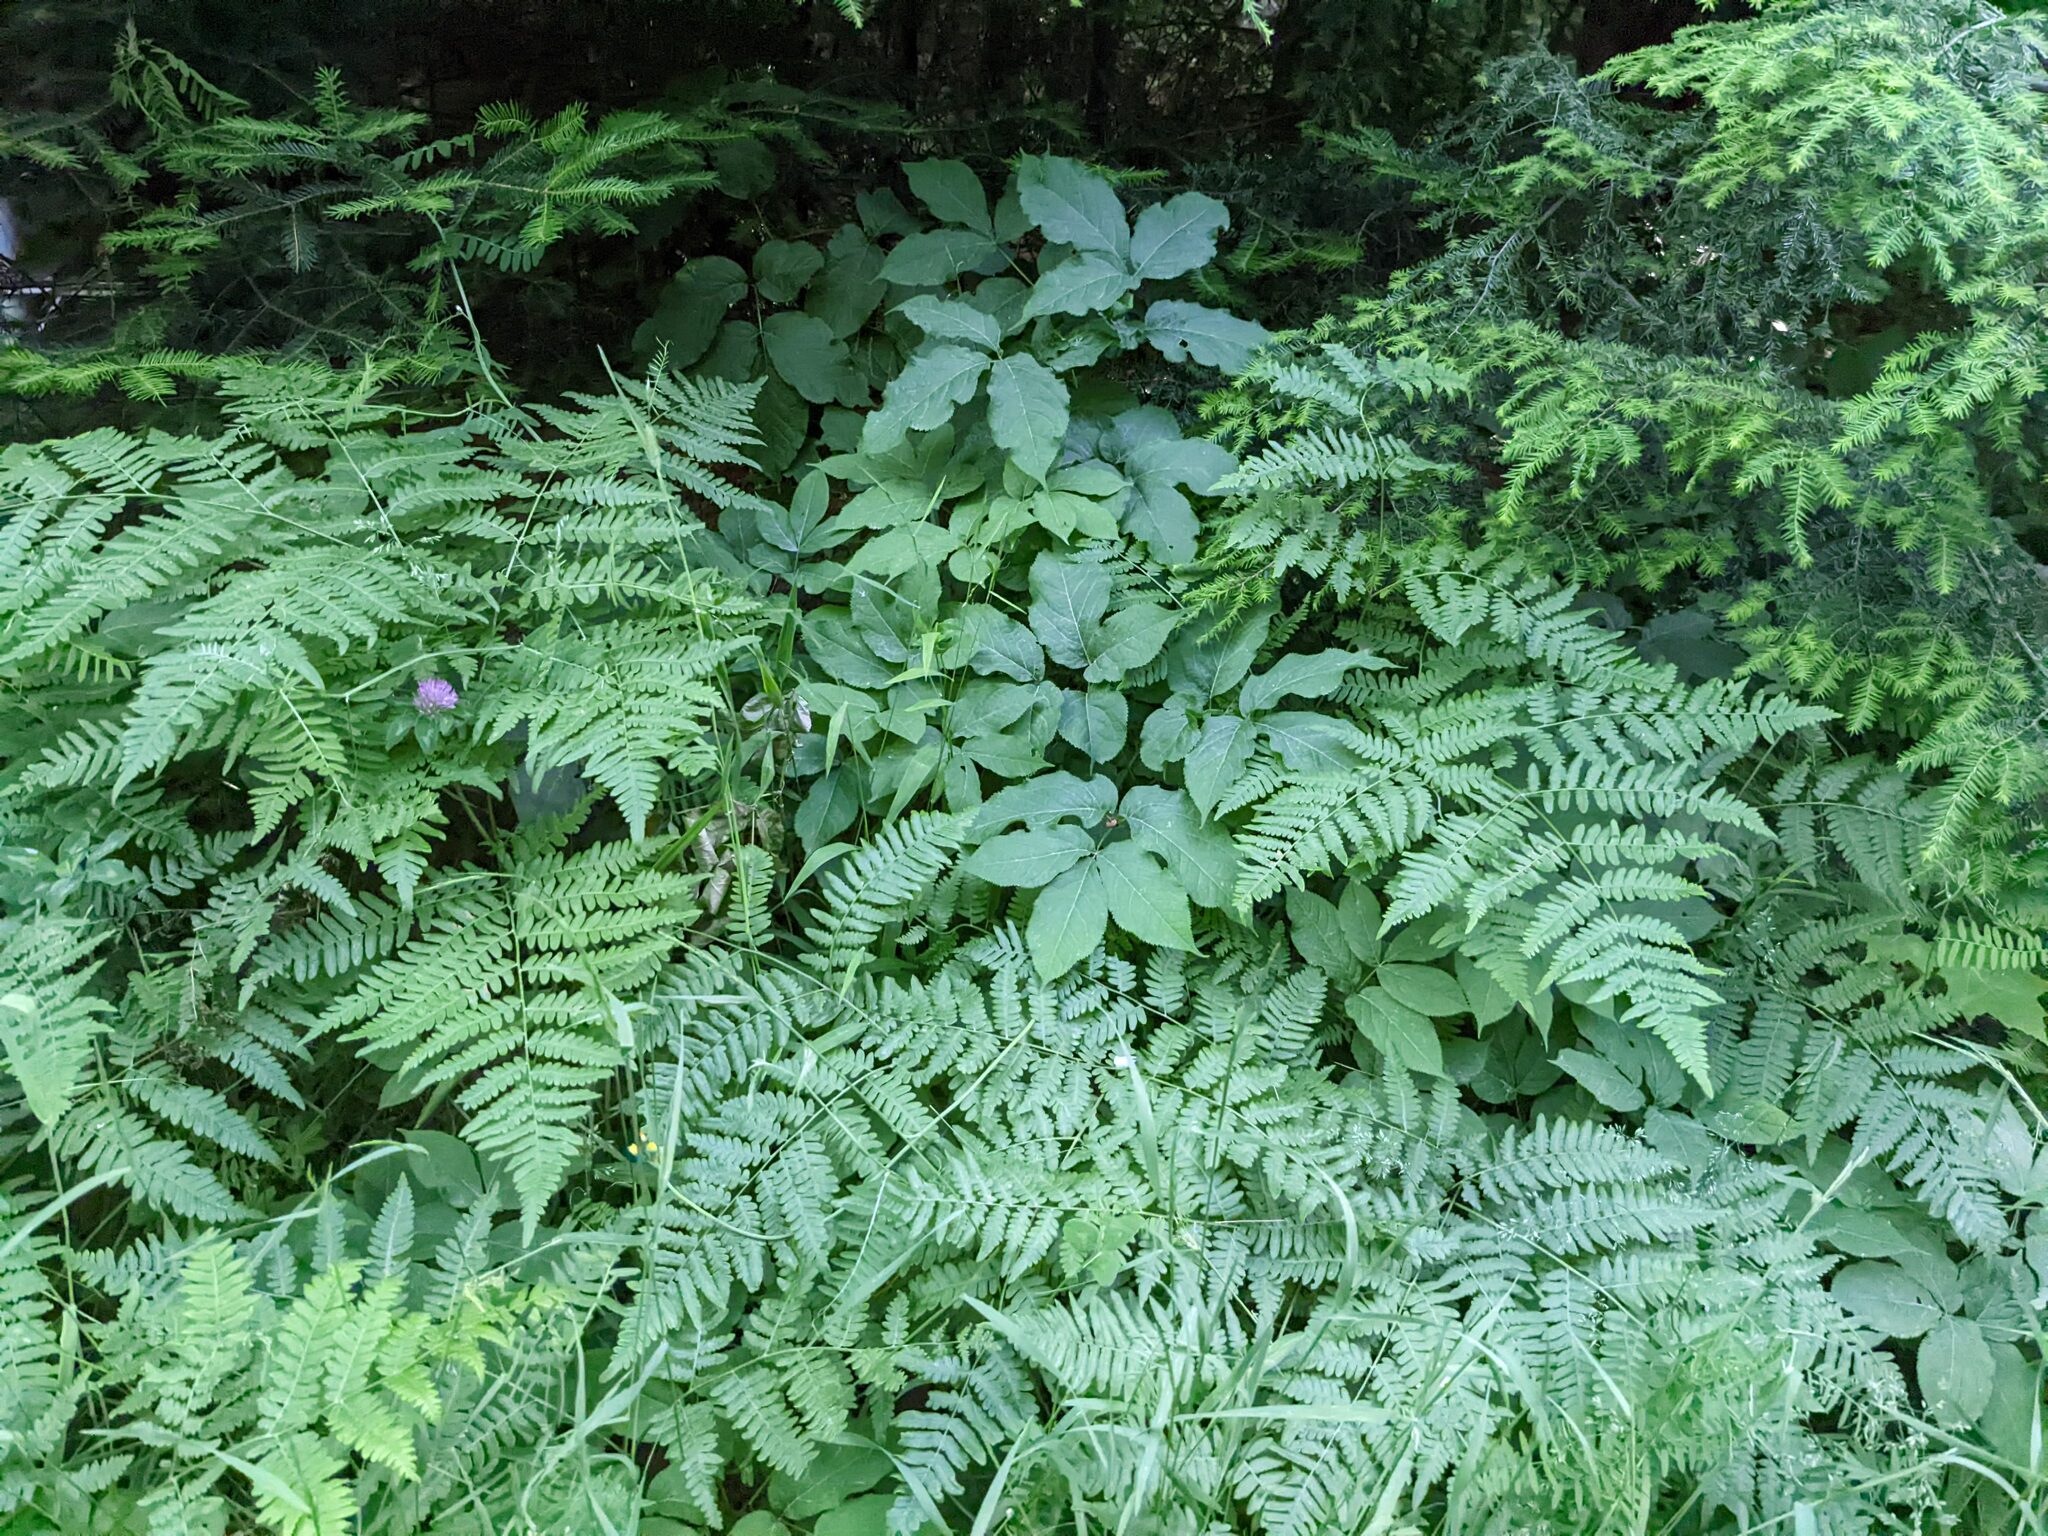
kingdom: Plantae
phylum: Tracheophyta
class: Polypodiopsida
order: Polypodiales
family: Dennstaedtiaceae
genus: Pteridium
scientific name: Pteridium aquilinum
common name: Bracken
